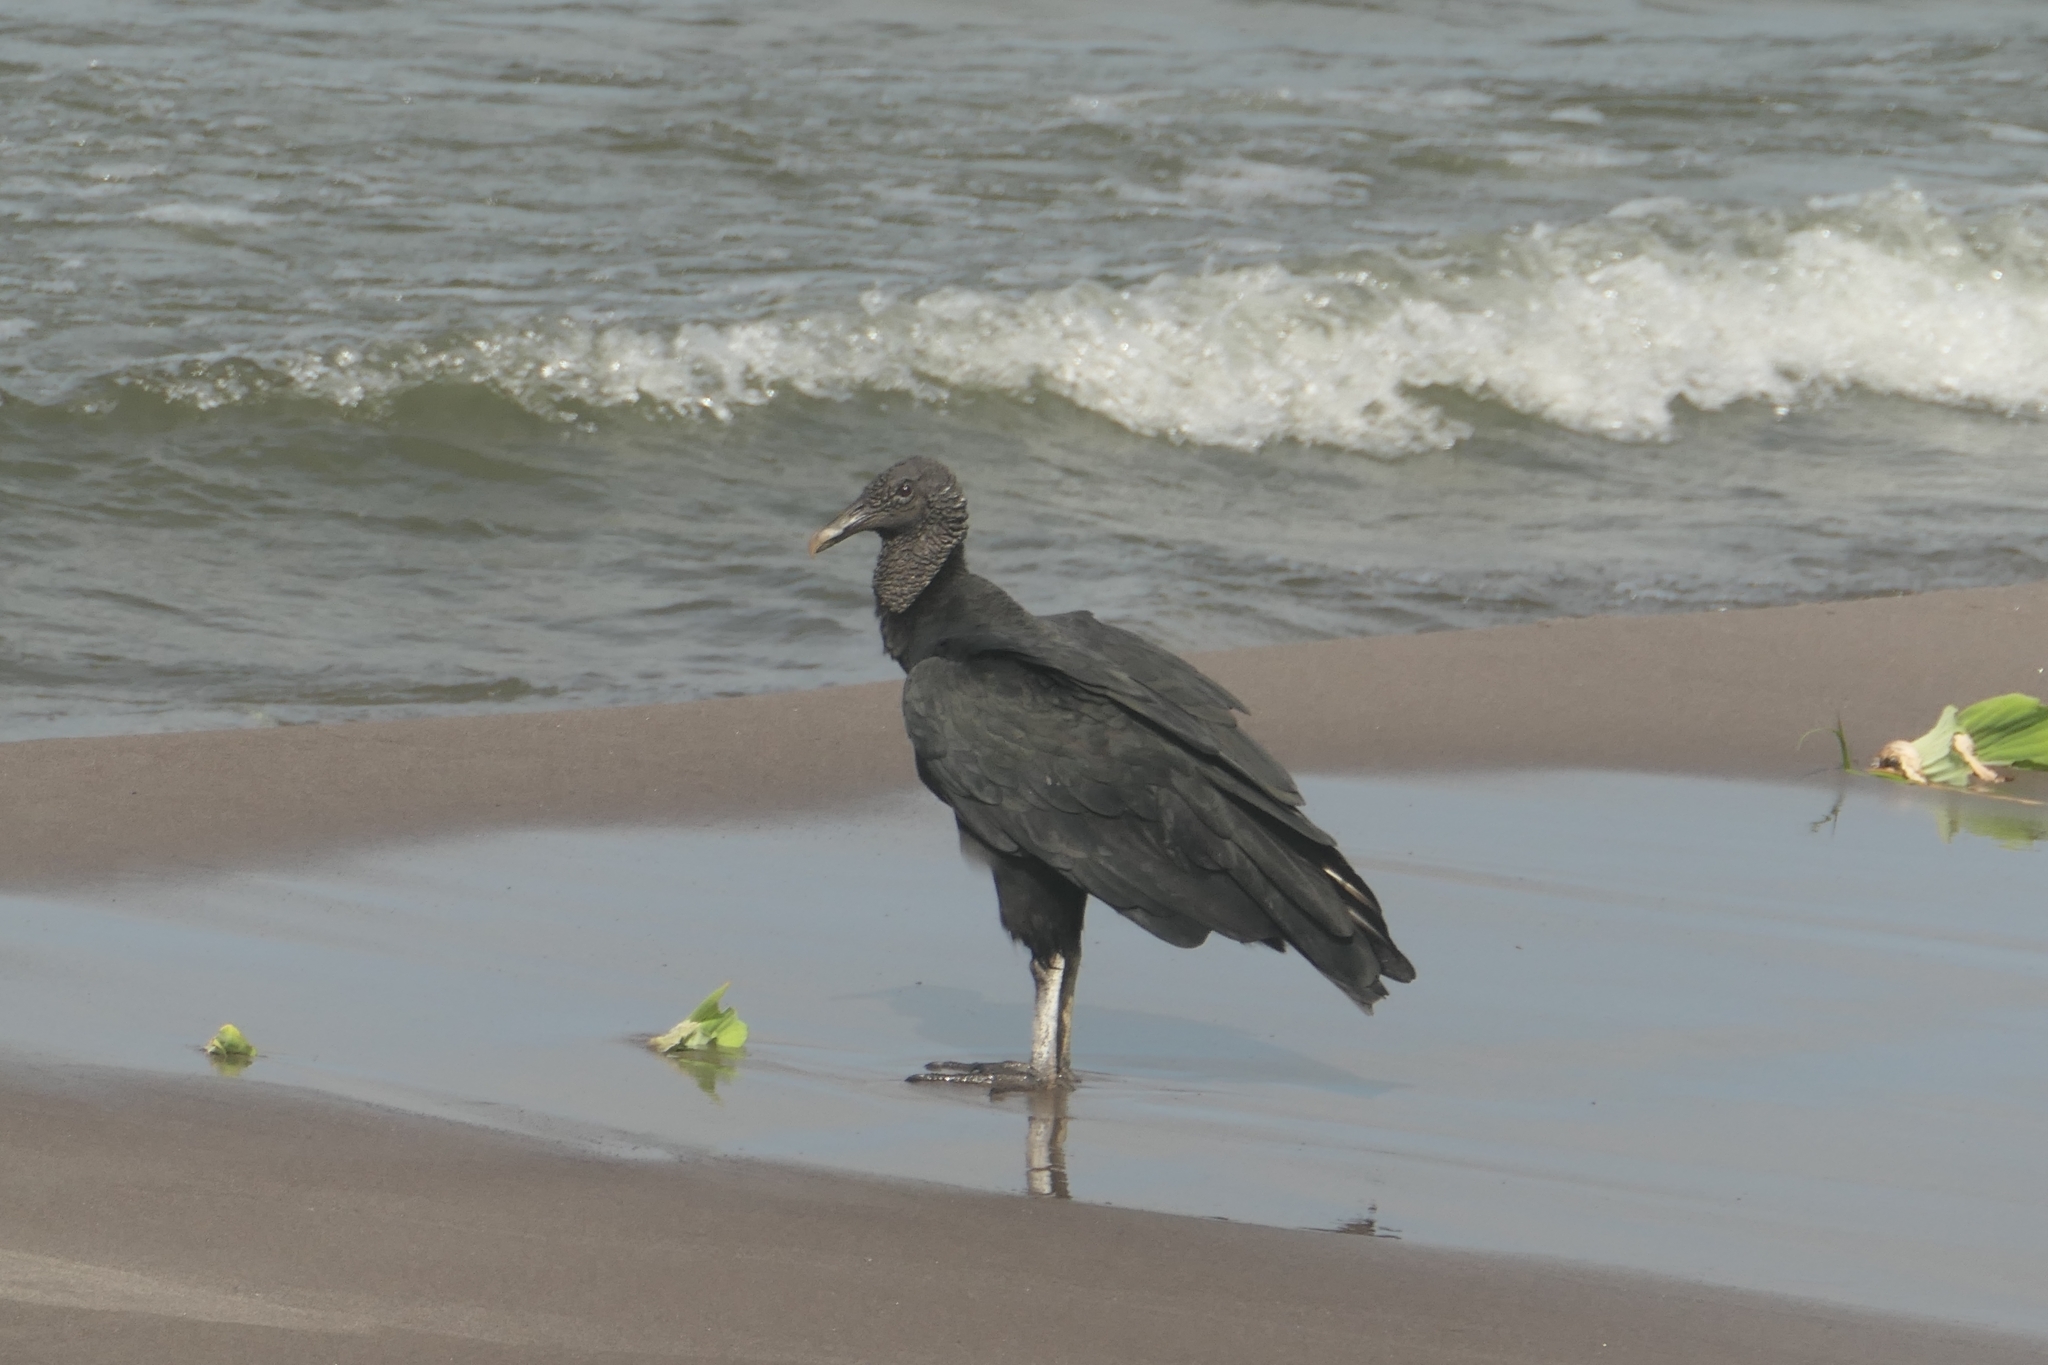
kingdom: Animalia
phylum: Chordata
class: Aves
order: Accipitriformes
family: Cathartidae
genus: Coragyps
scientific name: Coragyps atratus
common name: Black vulture
